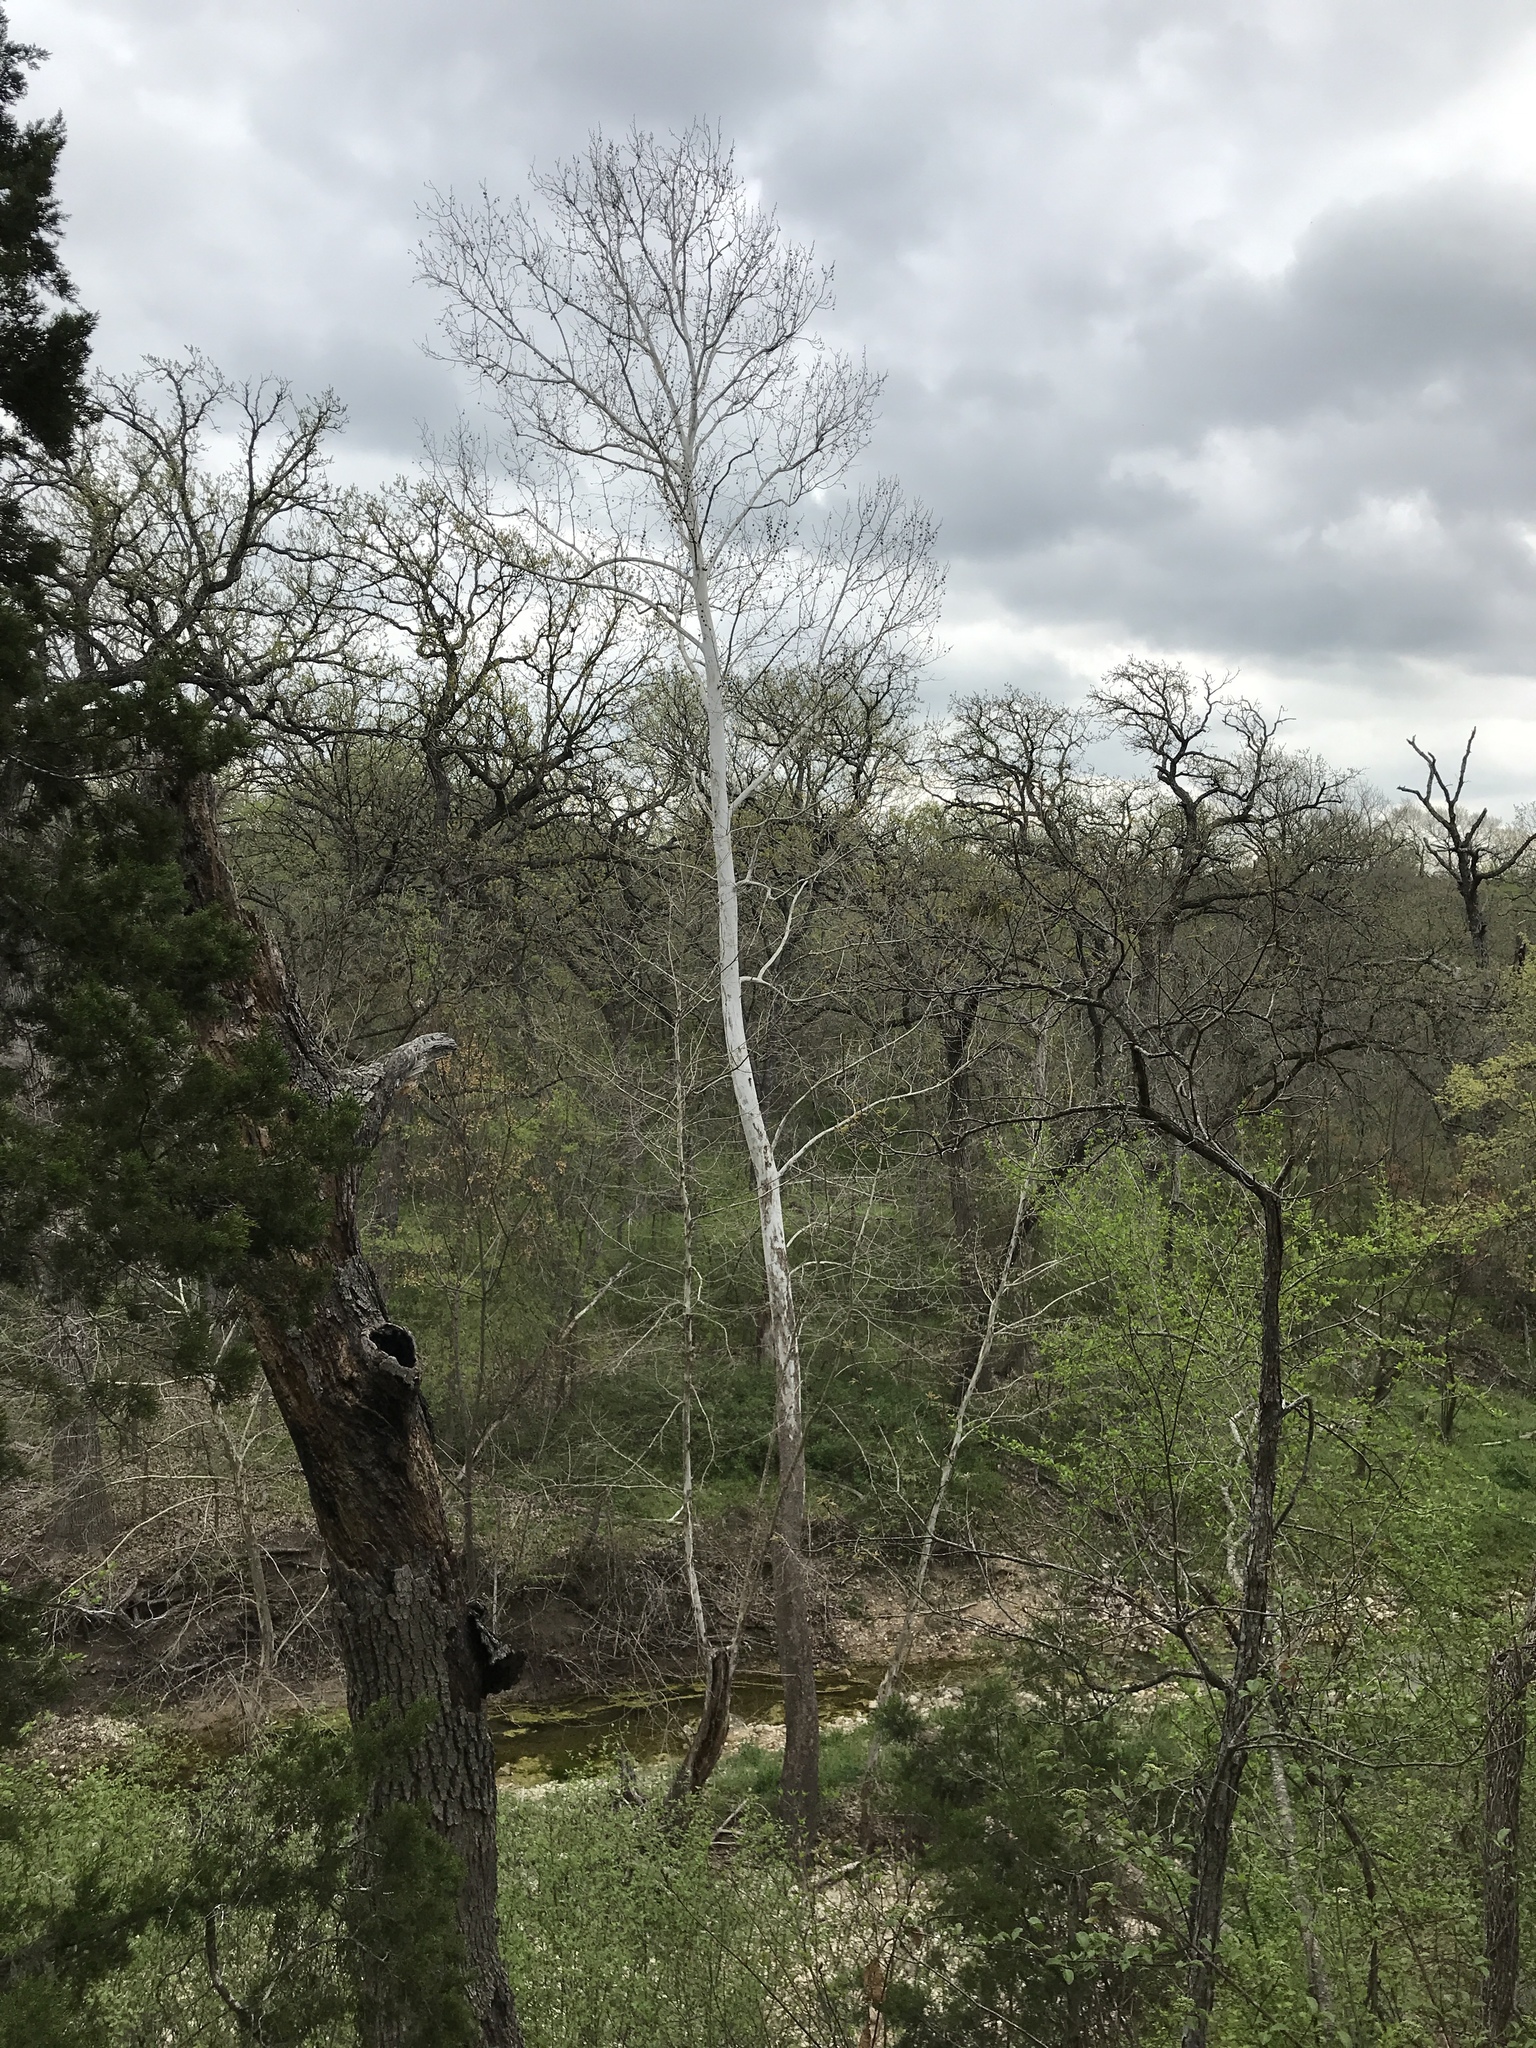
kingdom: Plantae
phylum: Tracheophyta
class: Magnoliopsida
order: Proteales
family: Platanaceae
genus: Platanus
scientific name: Platanus occidentalis
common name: American sycamore
